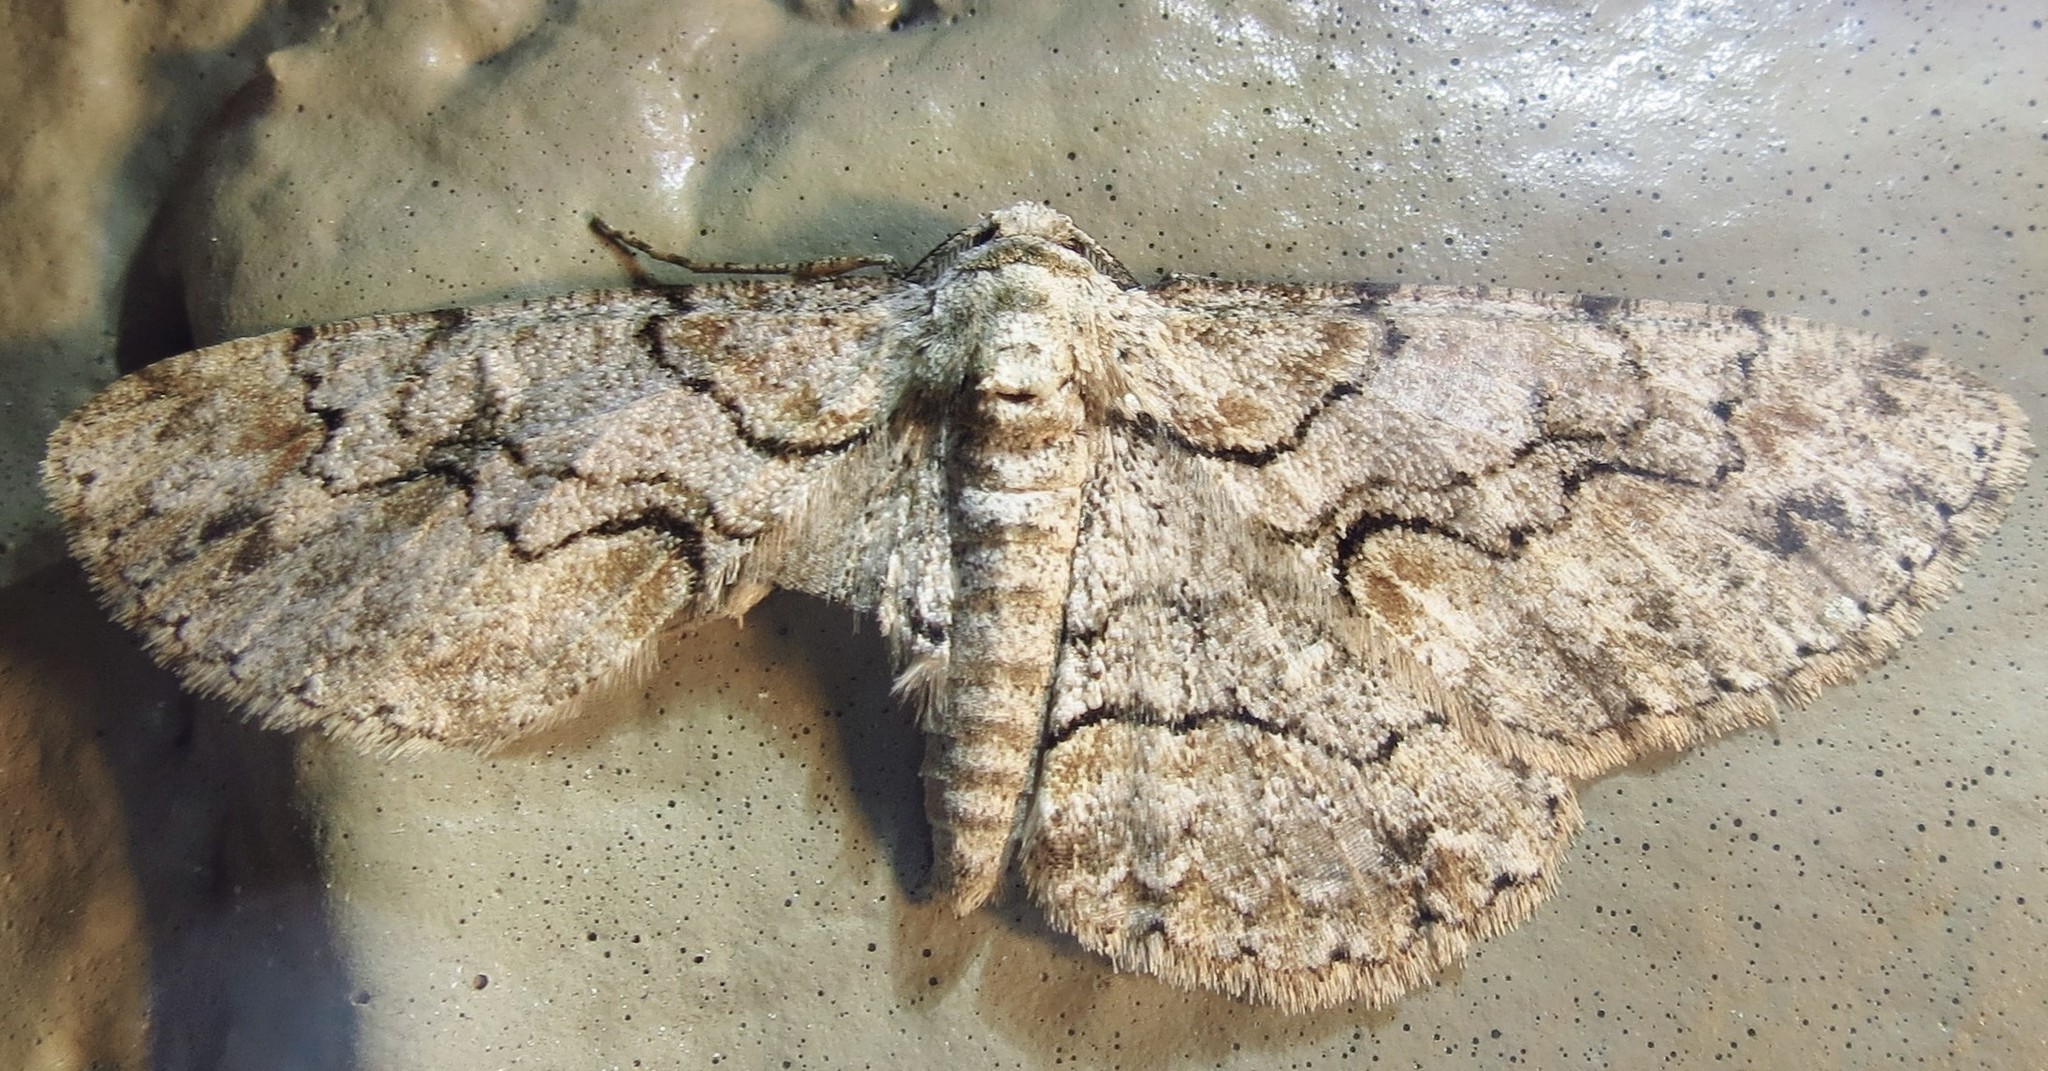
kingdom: Animalia
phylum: Arthropoda
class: Insecta
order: Lepidoptera
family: Geometridae
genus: Iridopsis
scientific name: Iridopsis defectaria
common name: Brown-shaded gray
